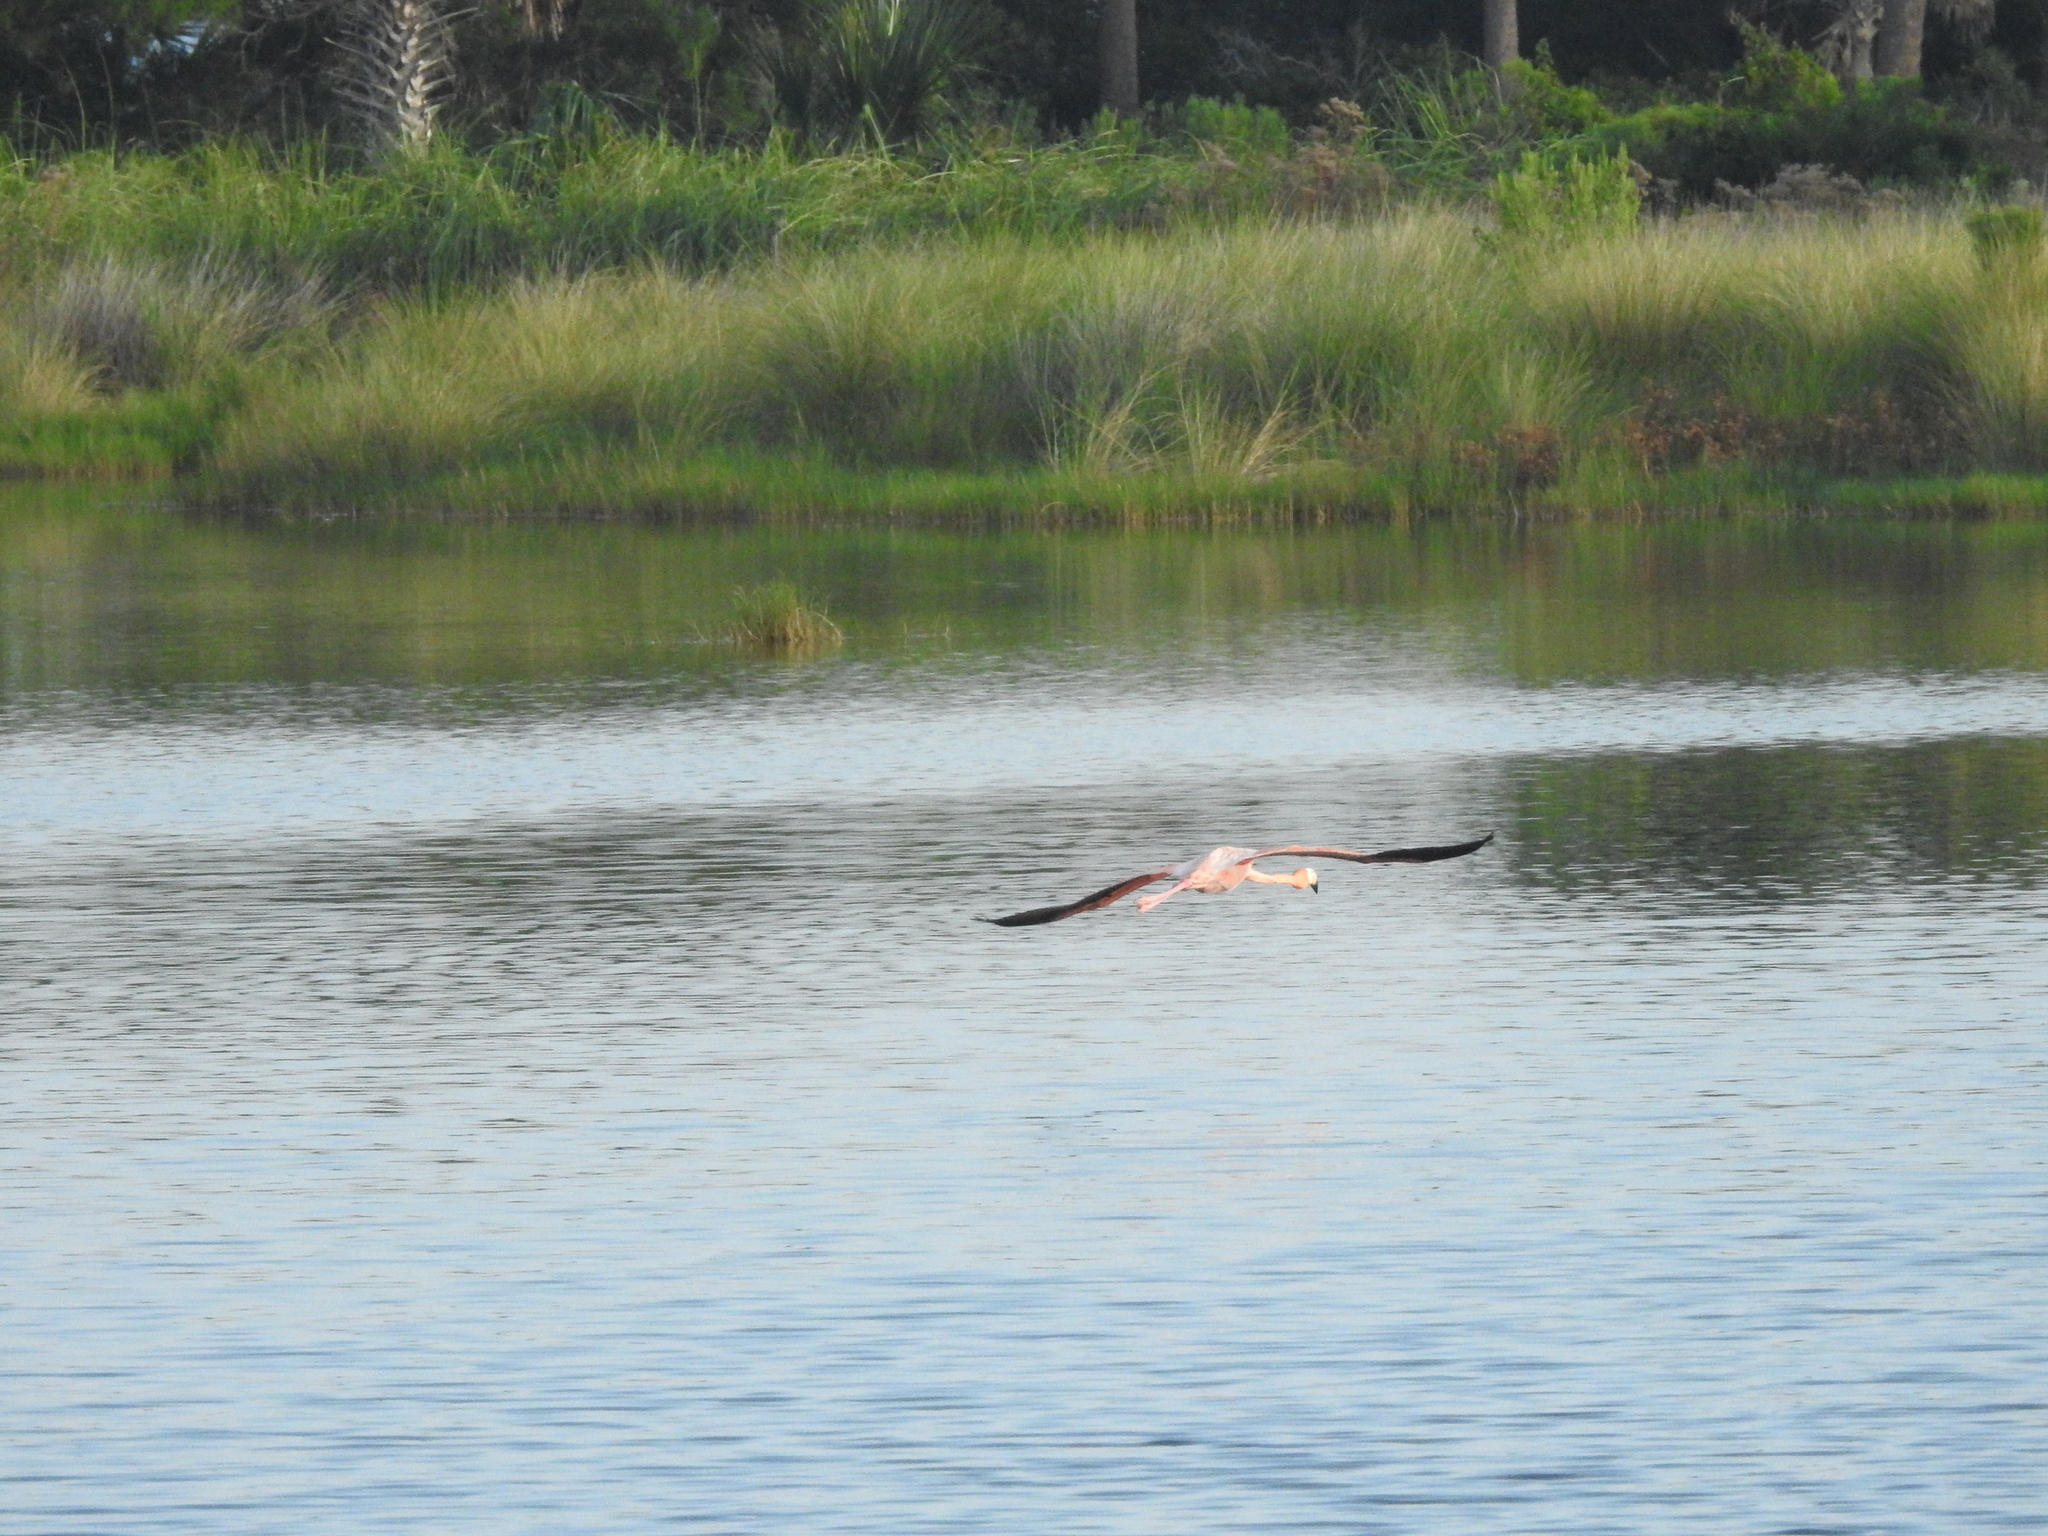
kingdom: Animalia
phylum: Chordata
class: Aves
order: Phoenicopteriformes
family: Phoenicopteridae
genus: Phoenicopterus
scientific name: Phoenicopterus ruber
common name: American flamingo
